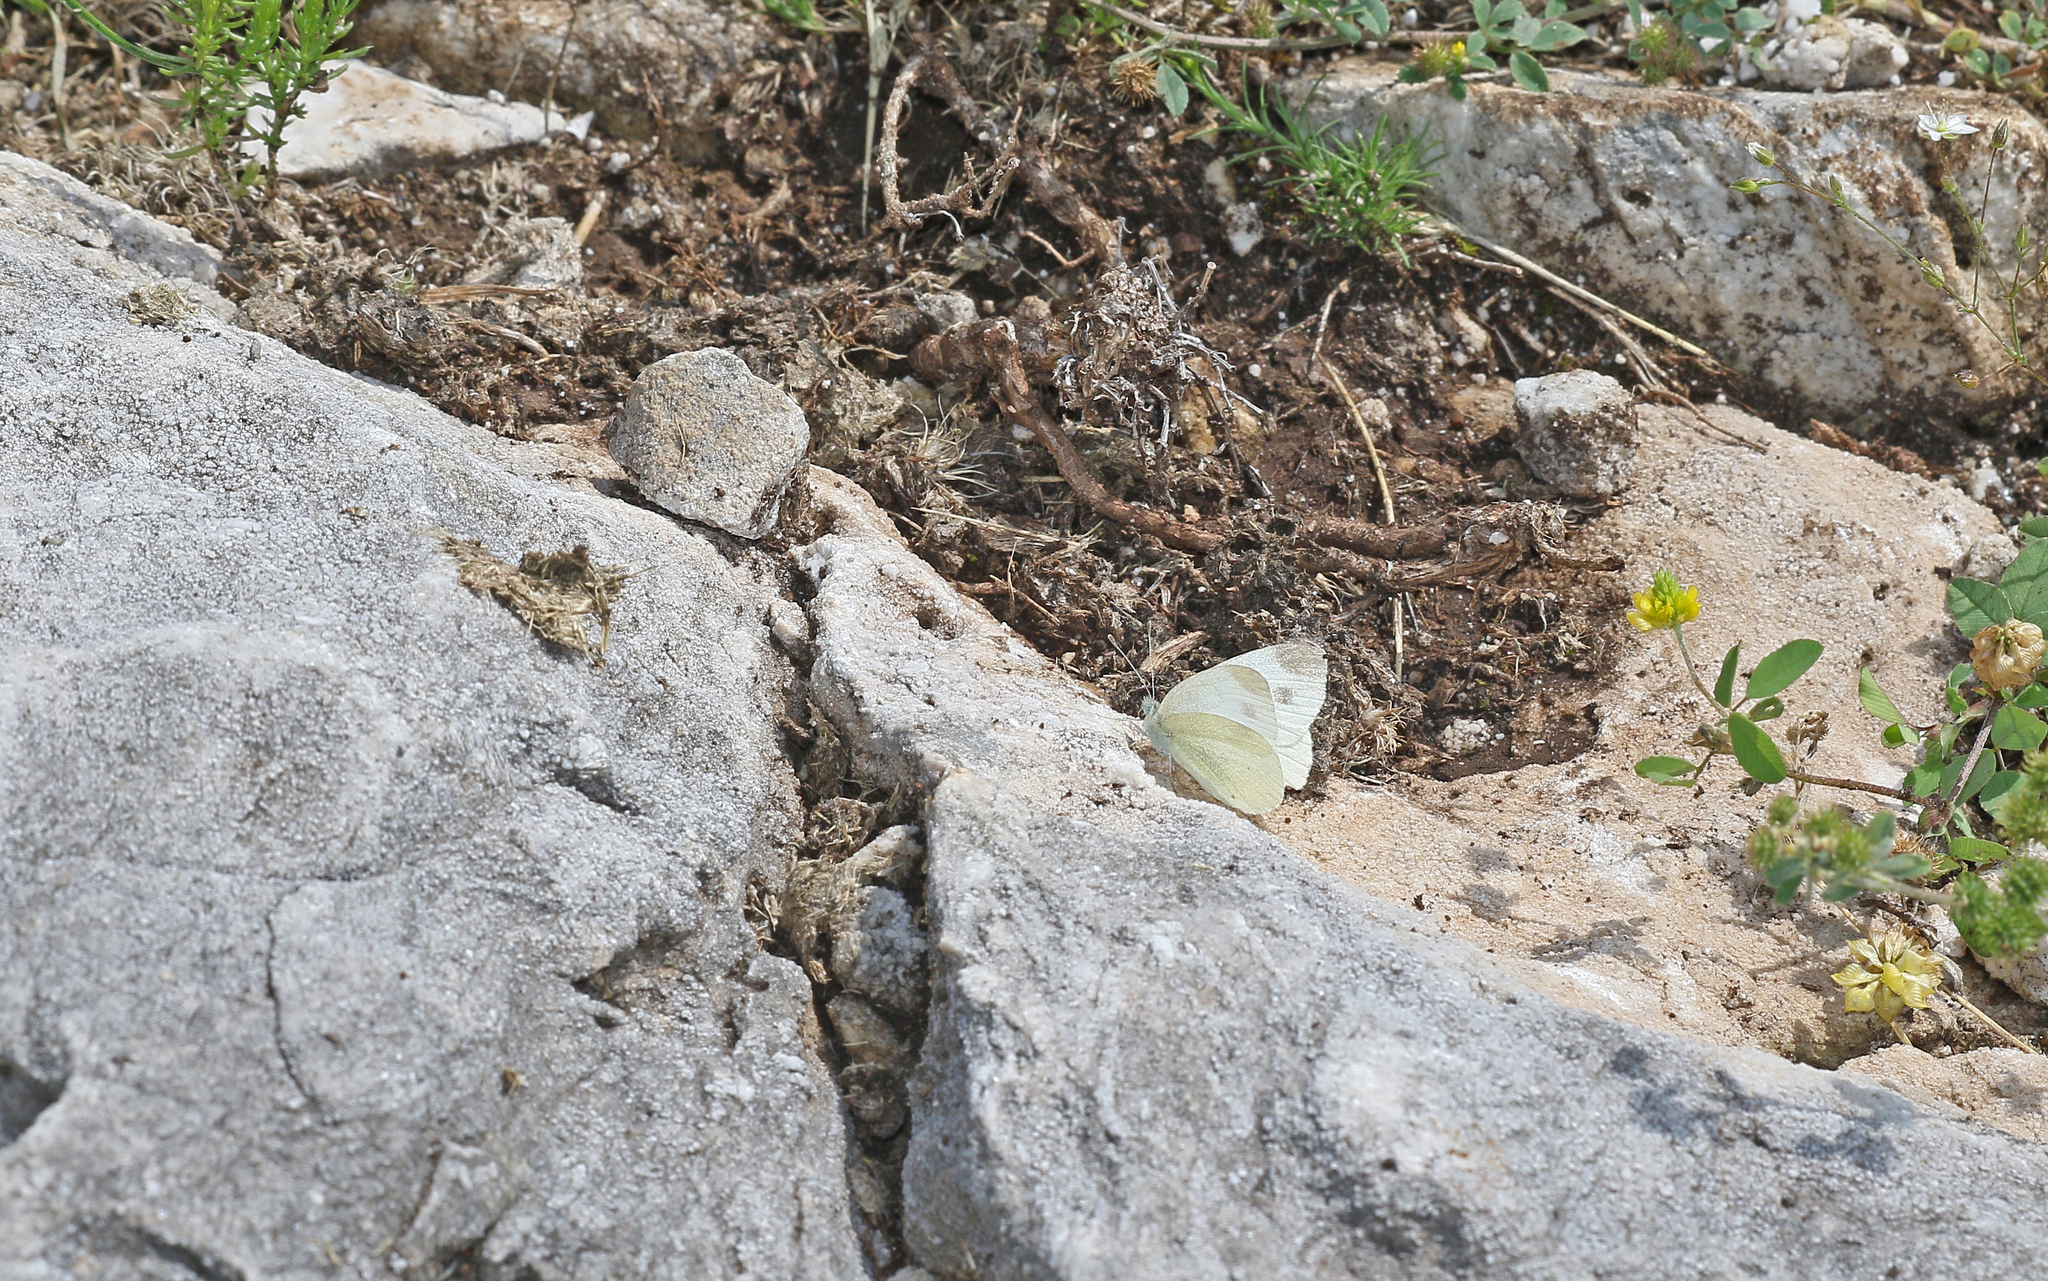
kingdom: Animalia
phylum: Arthropoda
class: Insecta
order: Lepidoptera
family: Pieridae
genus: Pieris
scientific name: Pieris ergane
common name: Mountain small white
